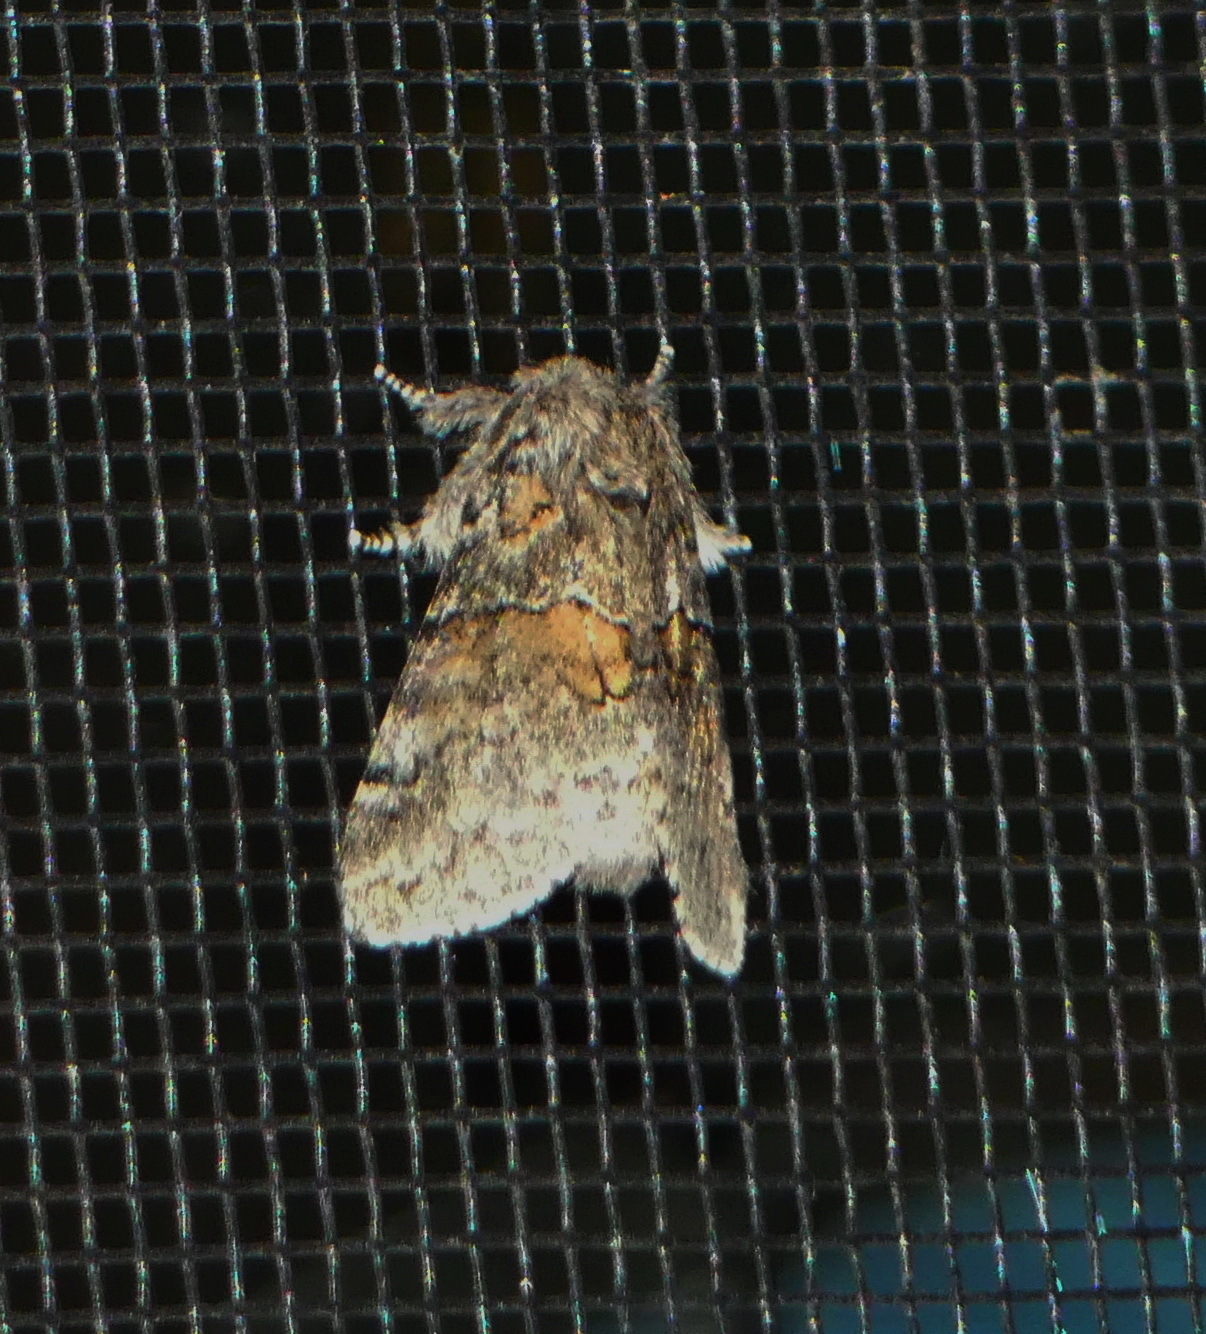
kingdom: Animalia
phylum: Arthropoda
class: Insecta
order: Lepidoptera
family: Notodontidae
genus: Gluphisia
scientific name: Gluphisia septentrionis
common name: Common gluphisia
